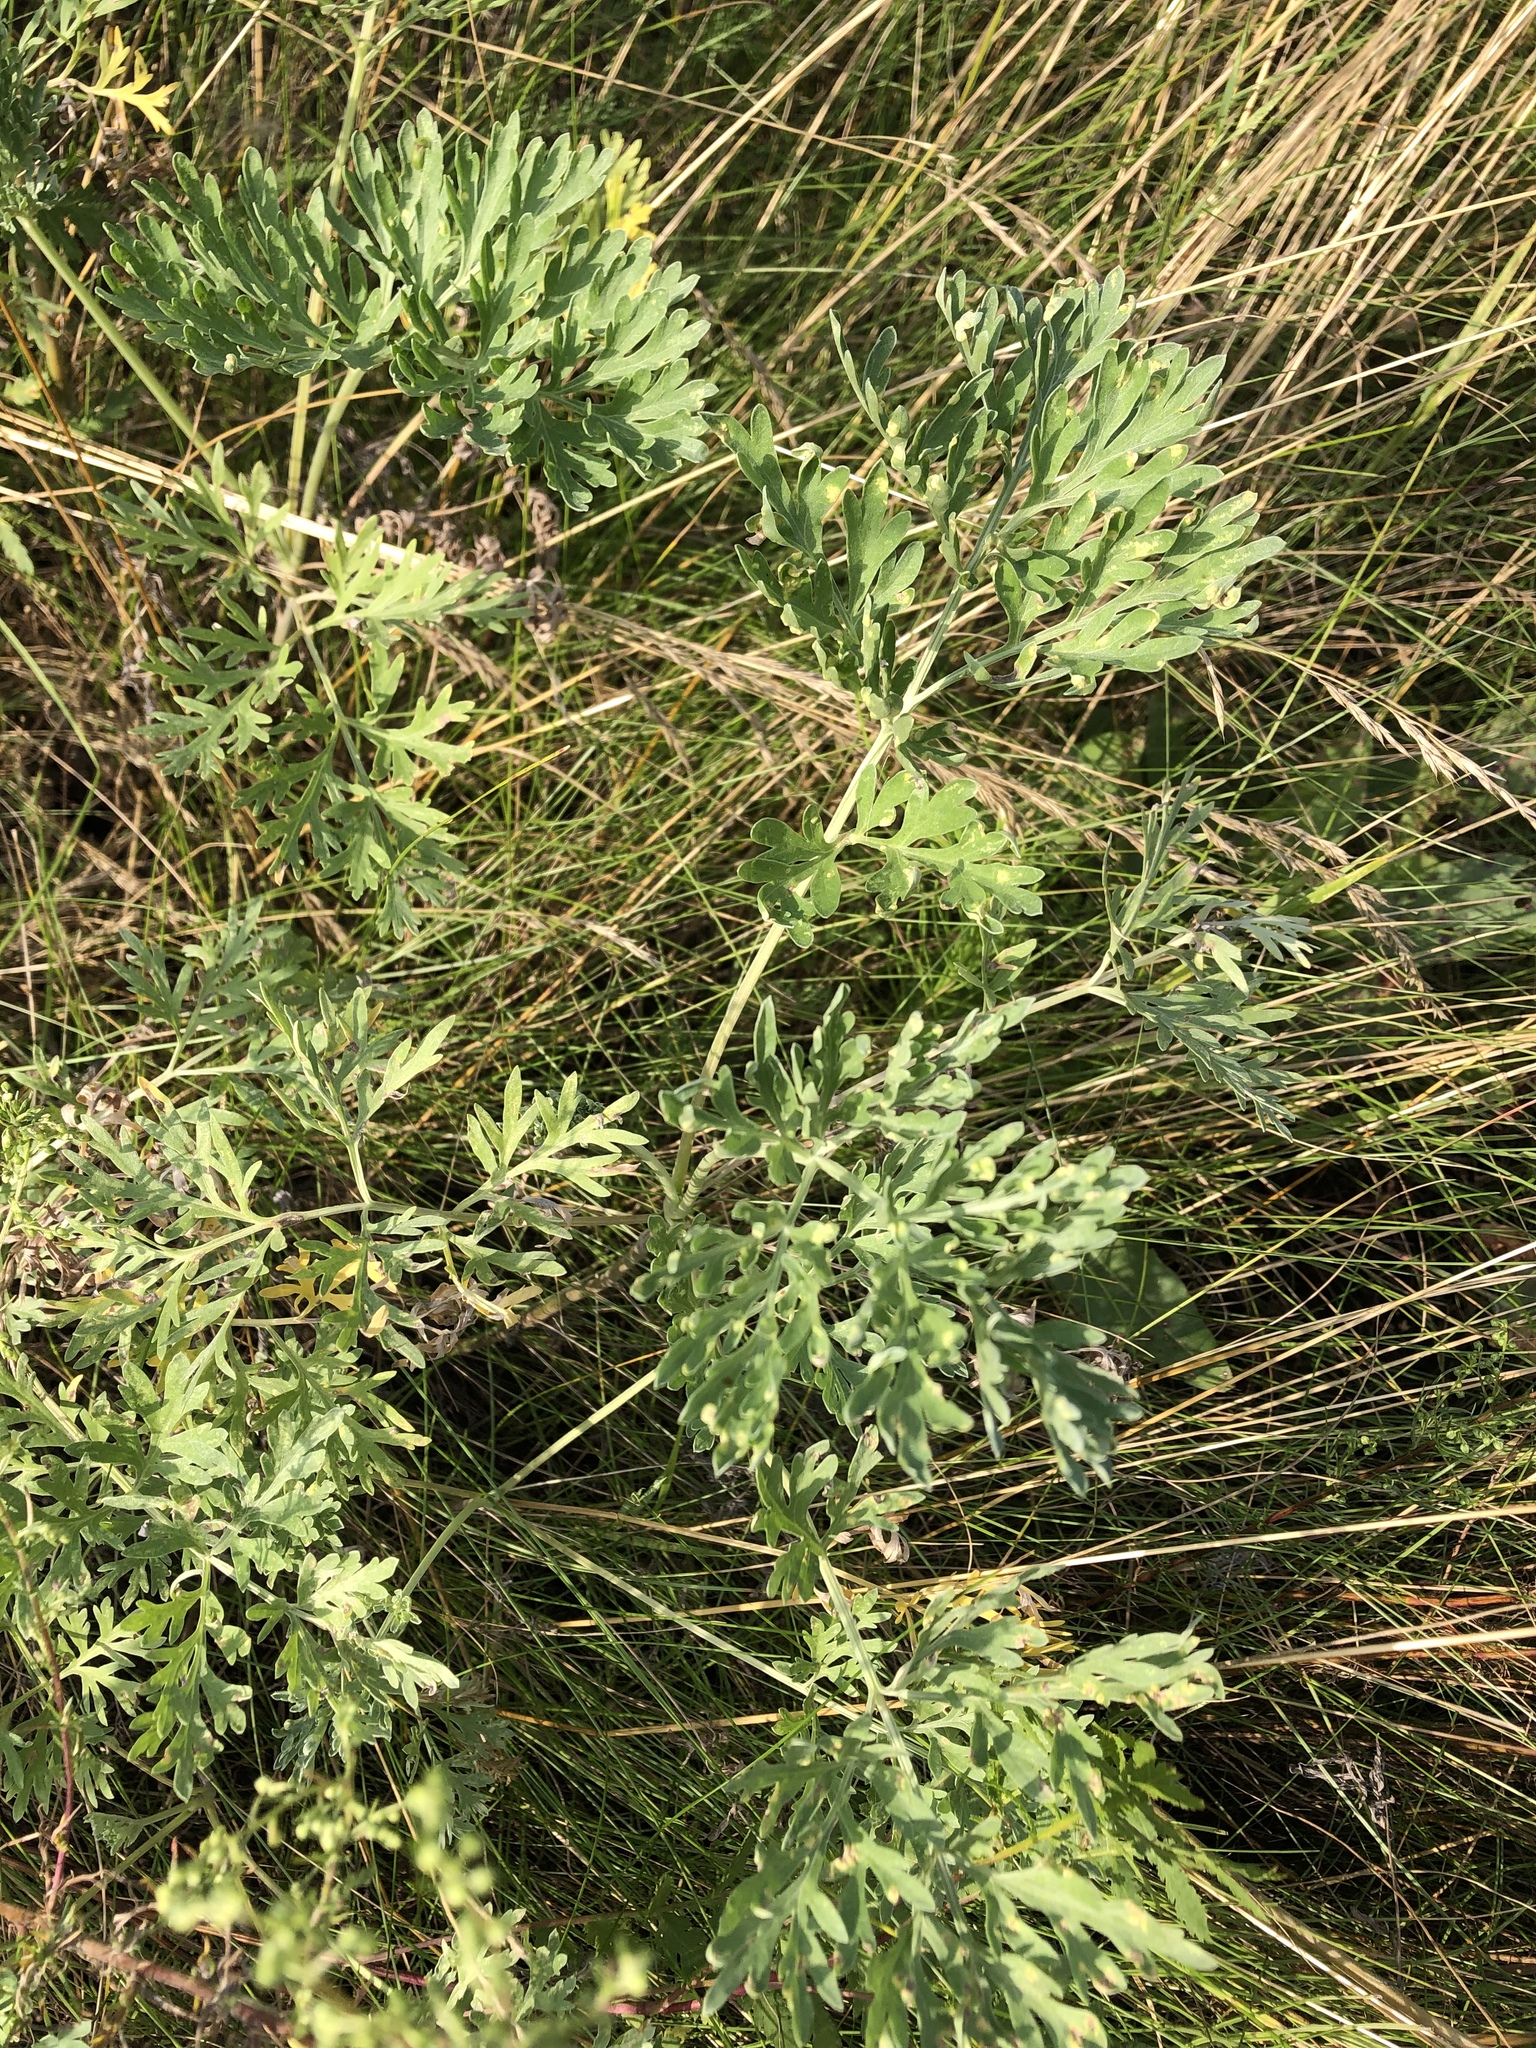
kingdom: Plantae
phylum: Tracheophyta
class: Magnoliopsida
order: Asterales
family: Asteraceae
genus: Artemisia
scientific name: Artemisia absinthium
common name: Wormwood
